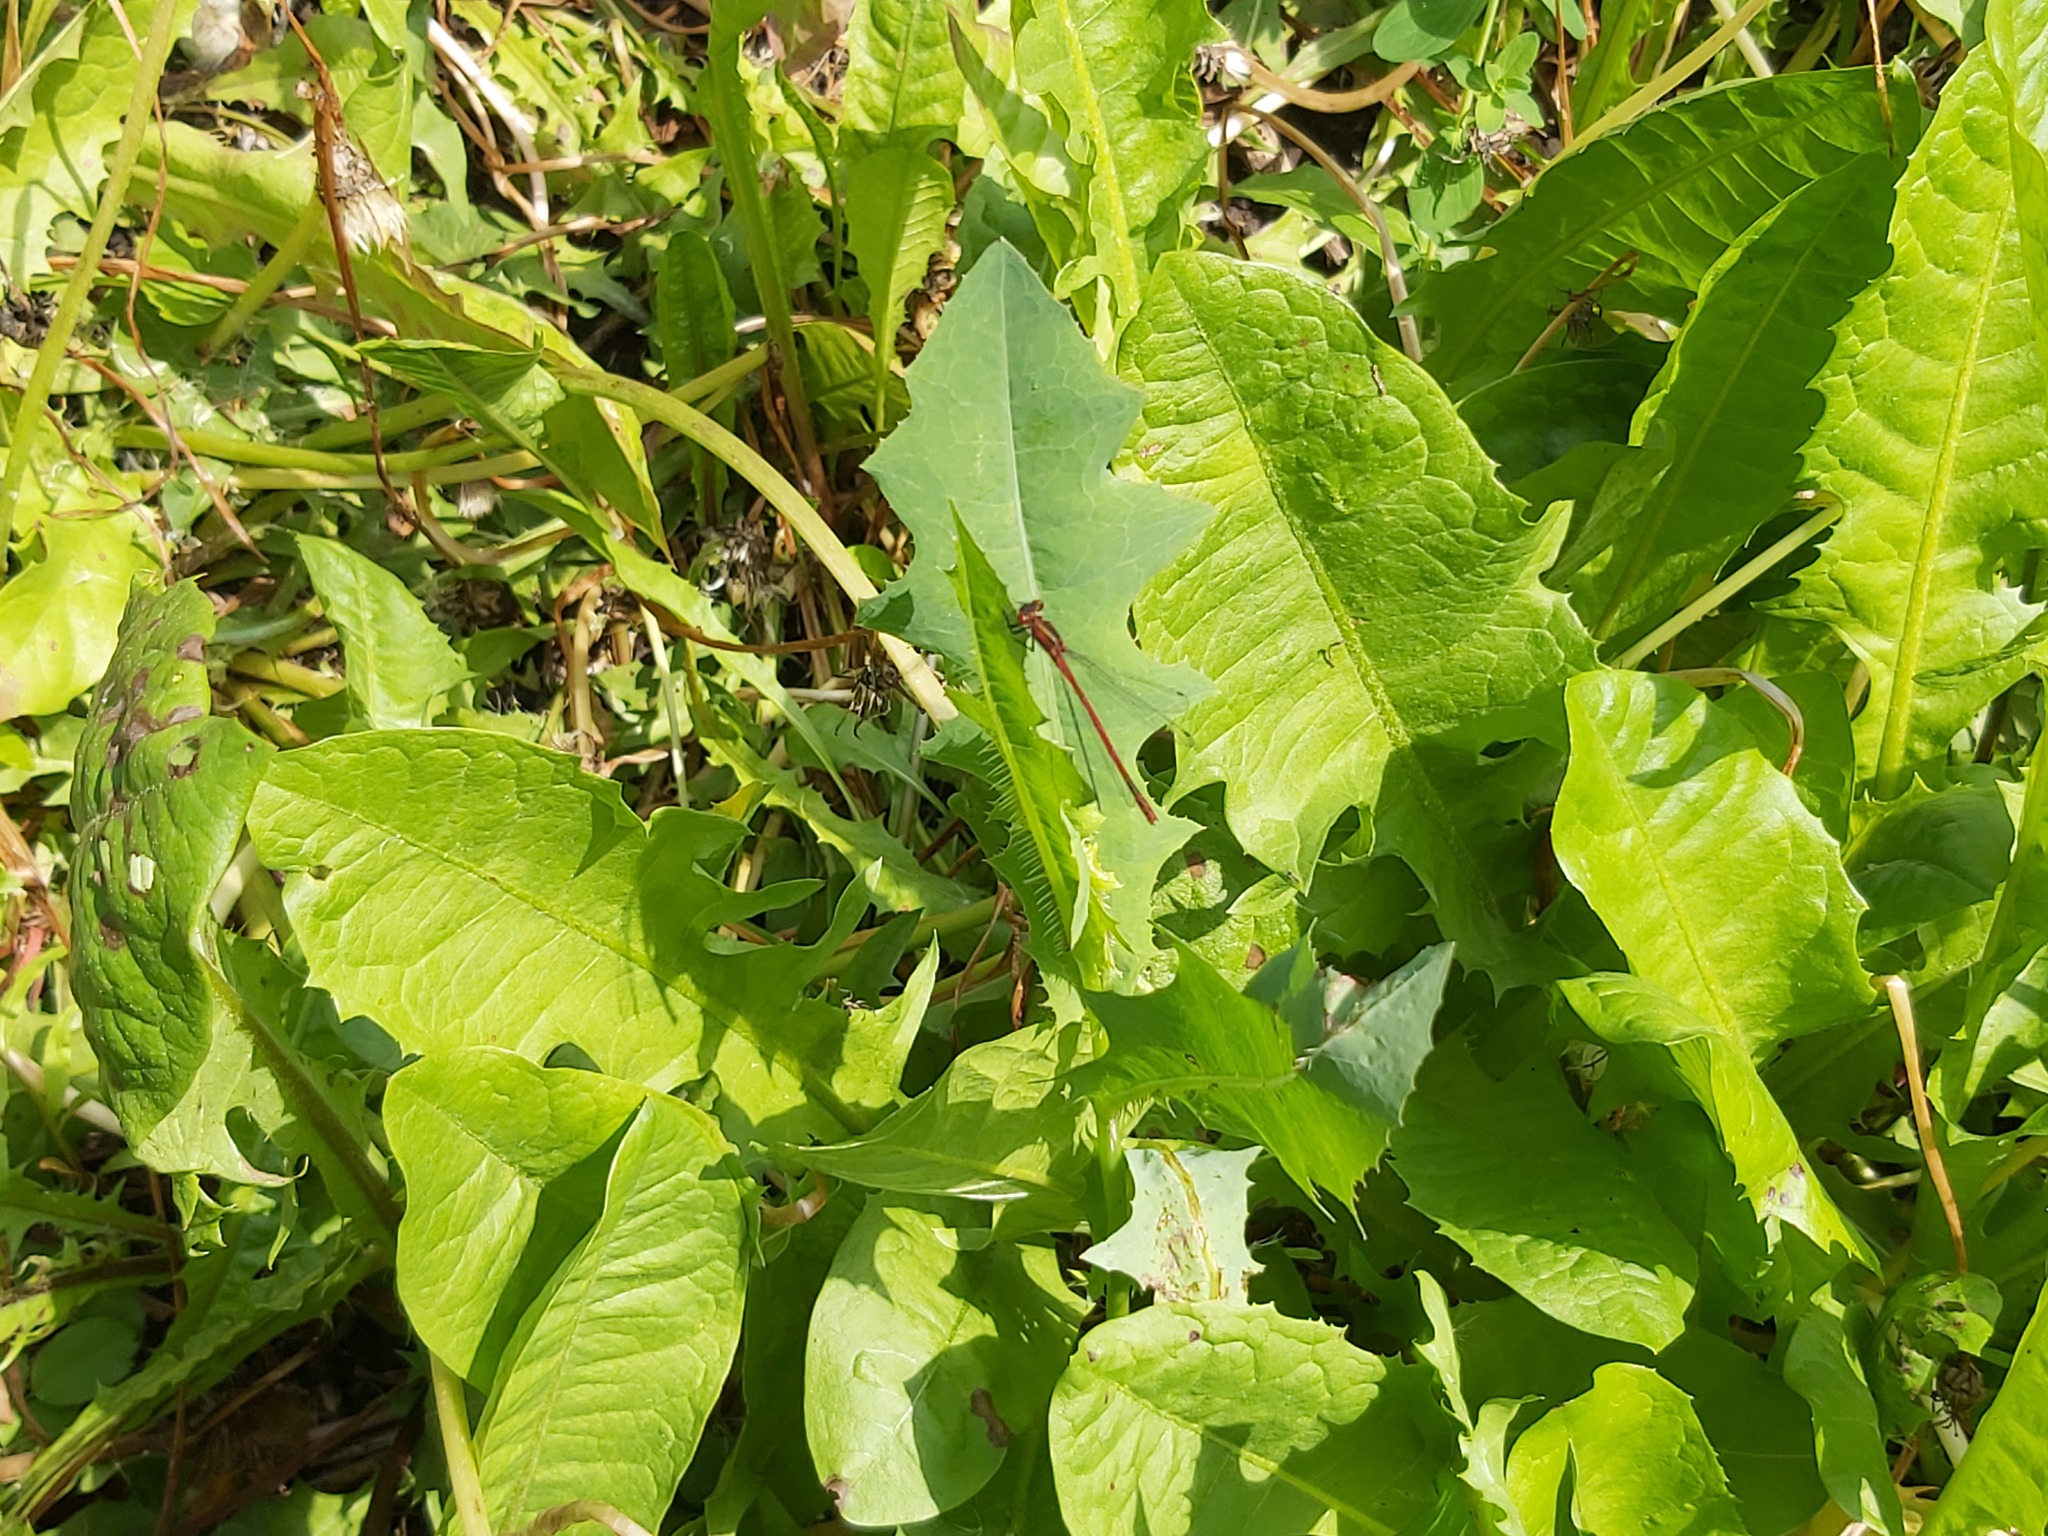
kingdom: Animalia
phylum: Arthropoda
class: Insecta
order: Odonata
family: Coenagrionidae
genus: Pyrrhosoma
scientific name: Pyrrhosoma nymphula
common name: Large red damsel
